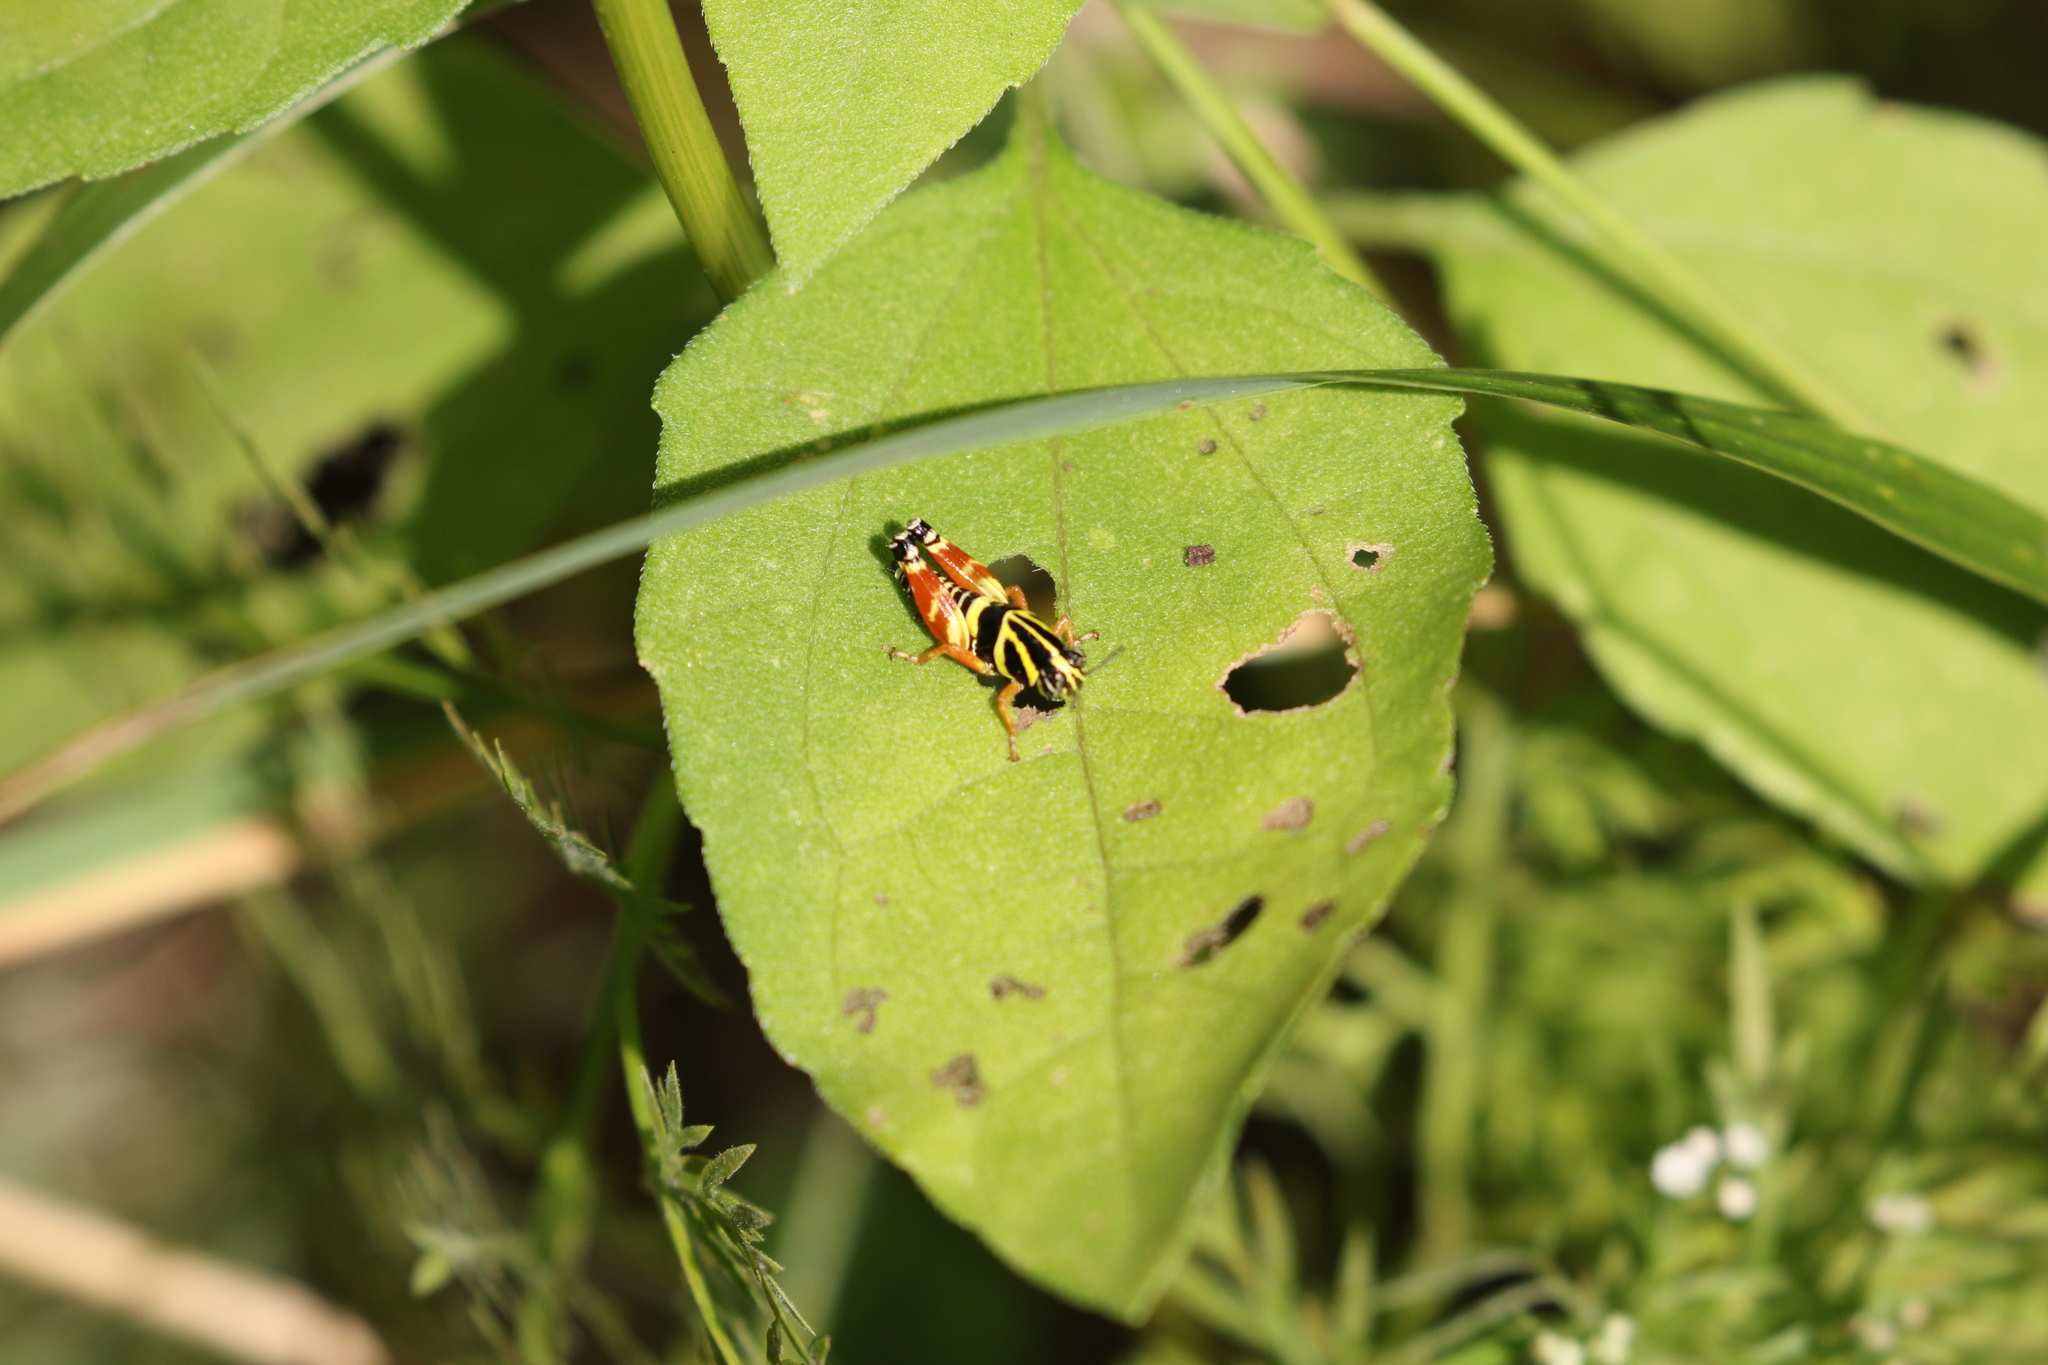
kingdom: Animalia
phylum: Arthropoda
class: Insecta
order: Orthoptera
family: Acrididae
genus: Aidemona
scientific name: Aidemona azteca
